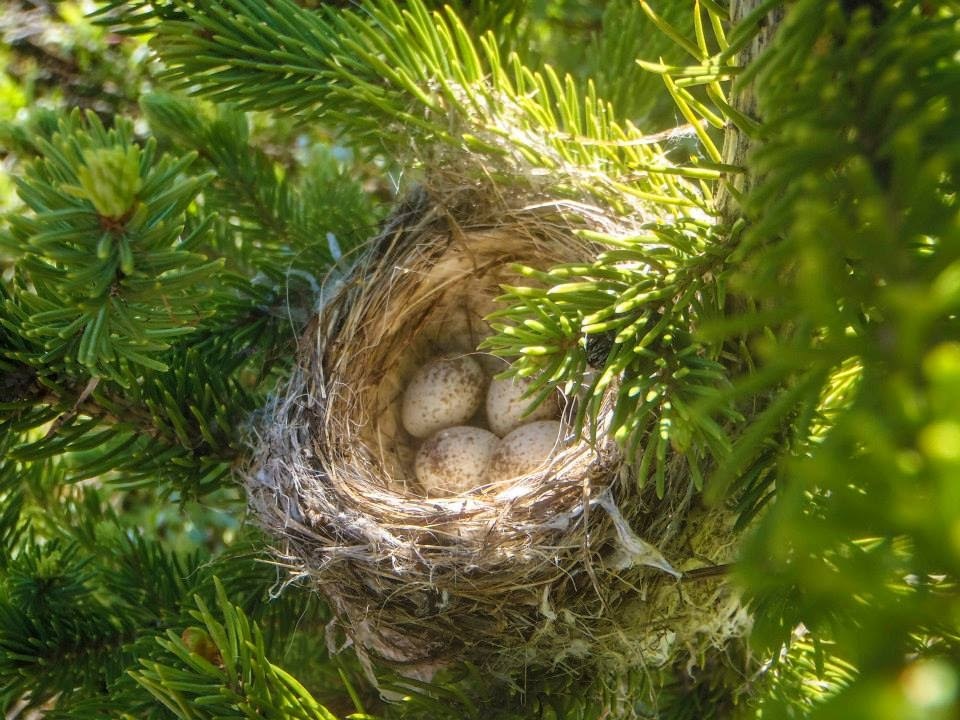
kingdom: Animalia
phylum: Chordata
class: Aves
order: Passeriformes
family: Passerellidae
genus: Zonotrichia
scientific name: Zonotrichia leucophrys
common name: White-crowned sparrow
